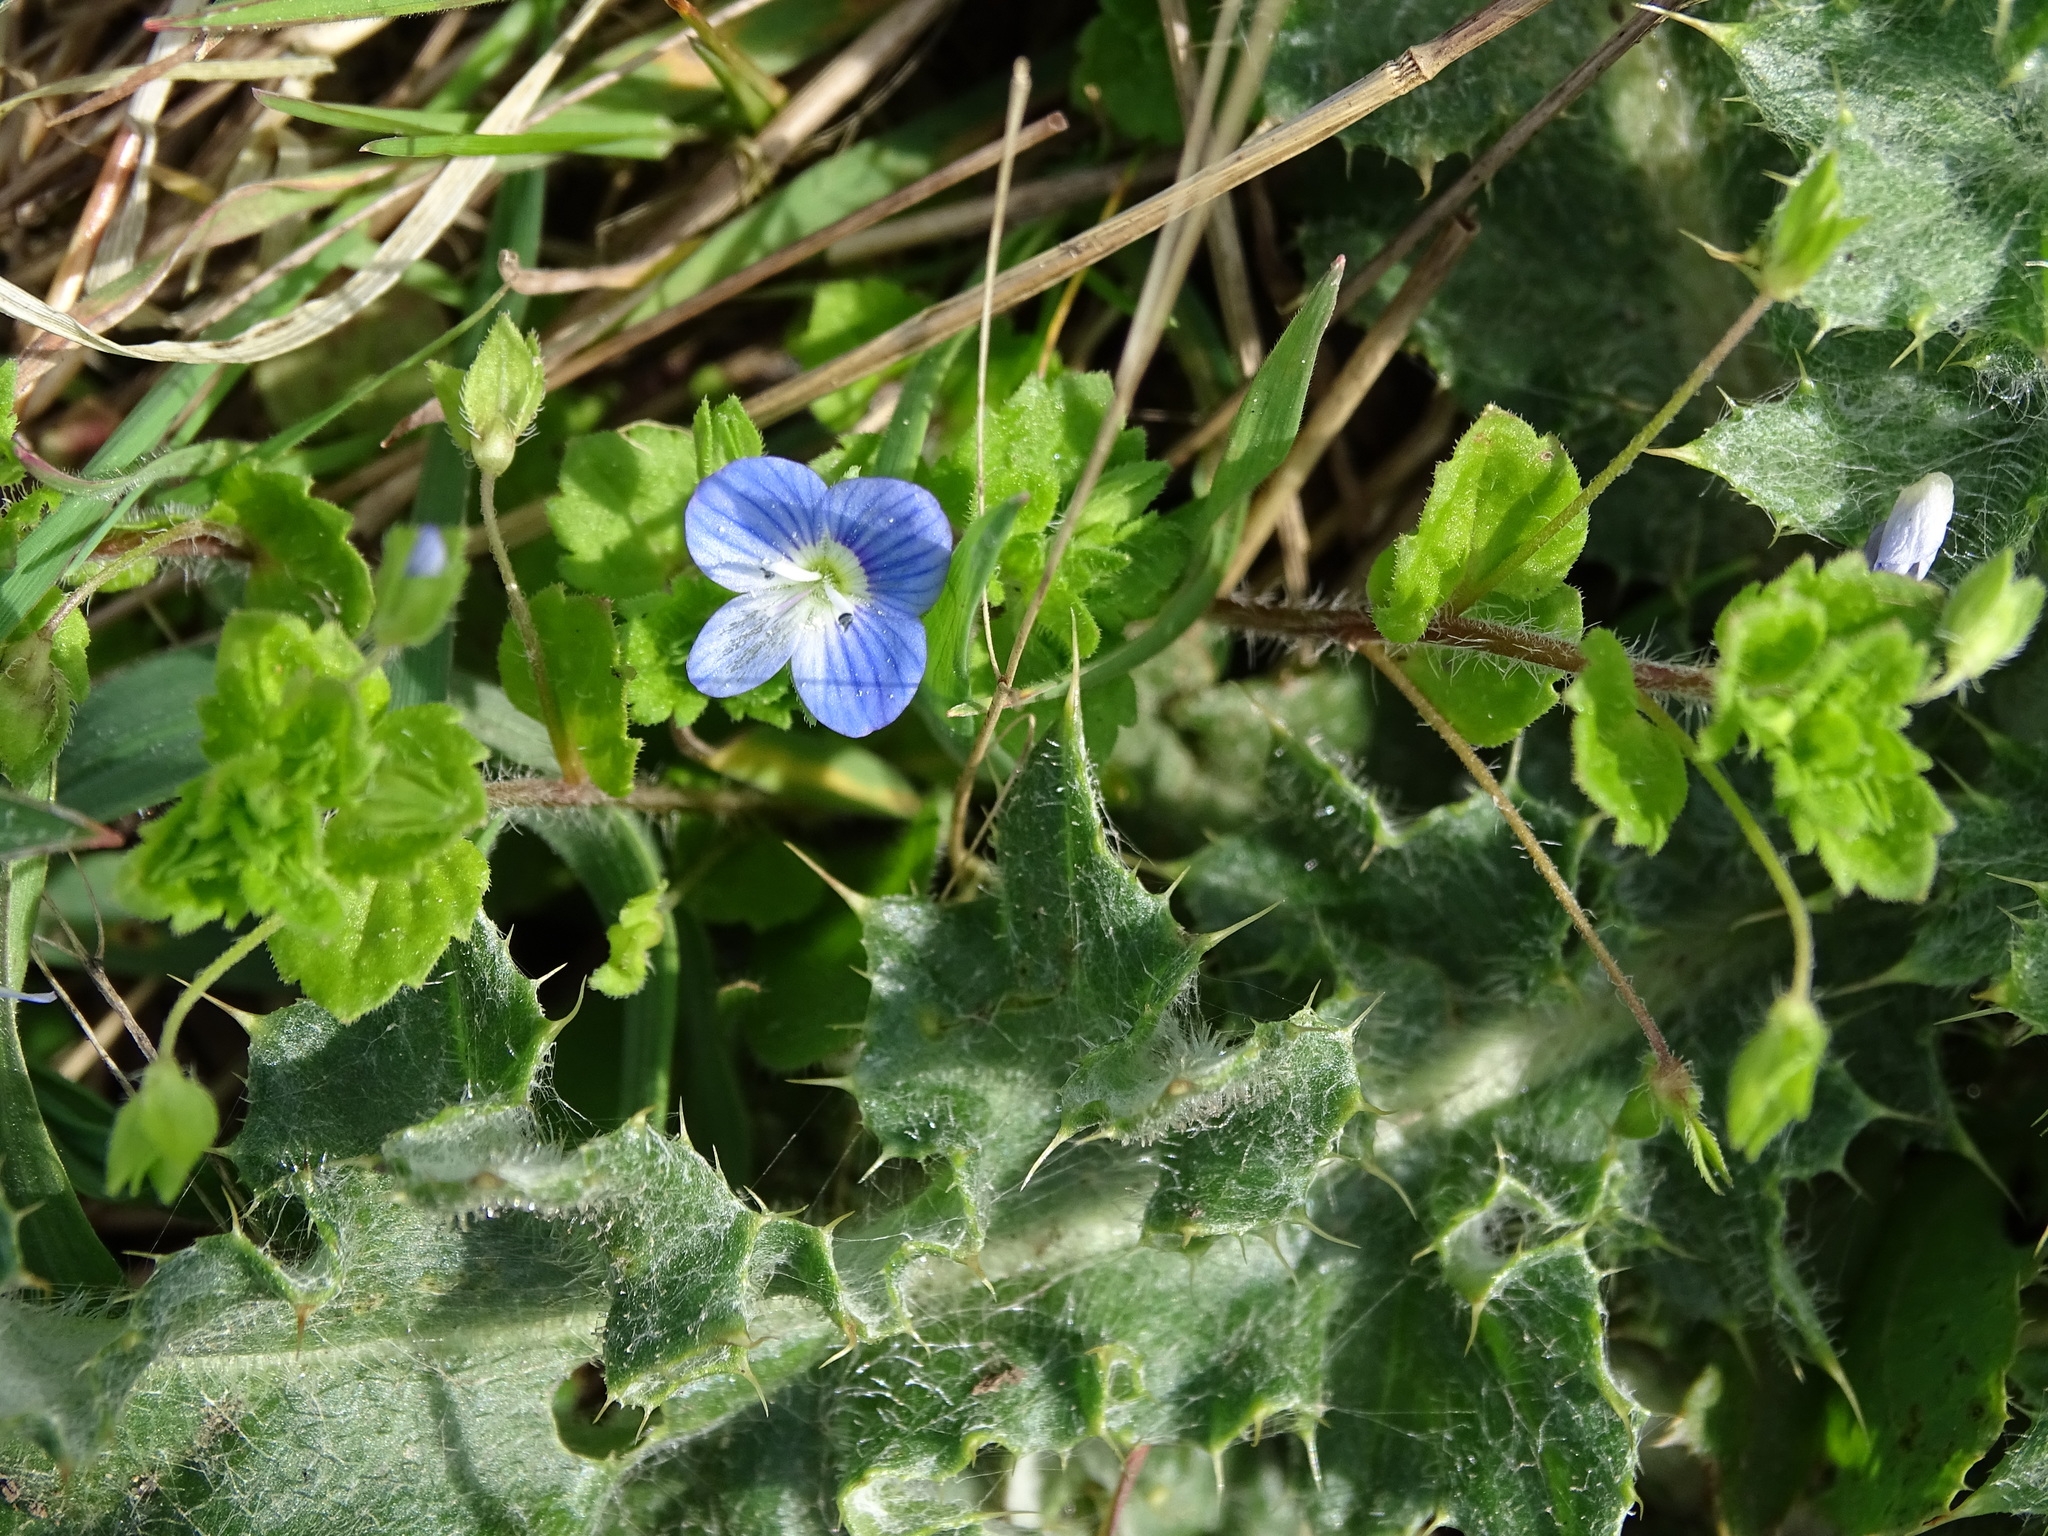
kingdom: Plantae
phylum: Tracheophyta
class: Magnoliopsida
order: Lamiales
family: Plantaginaceae
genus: Veronica
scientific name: Veronica persica
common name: Common field-speedwell
